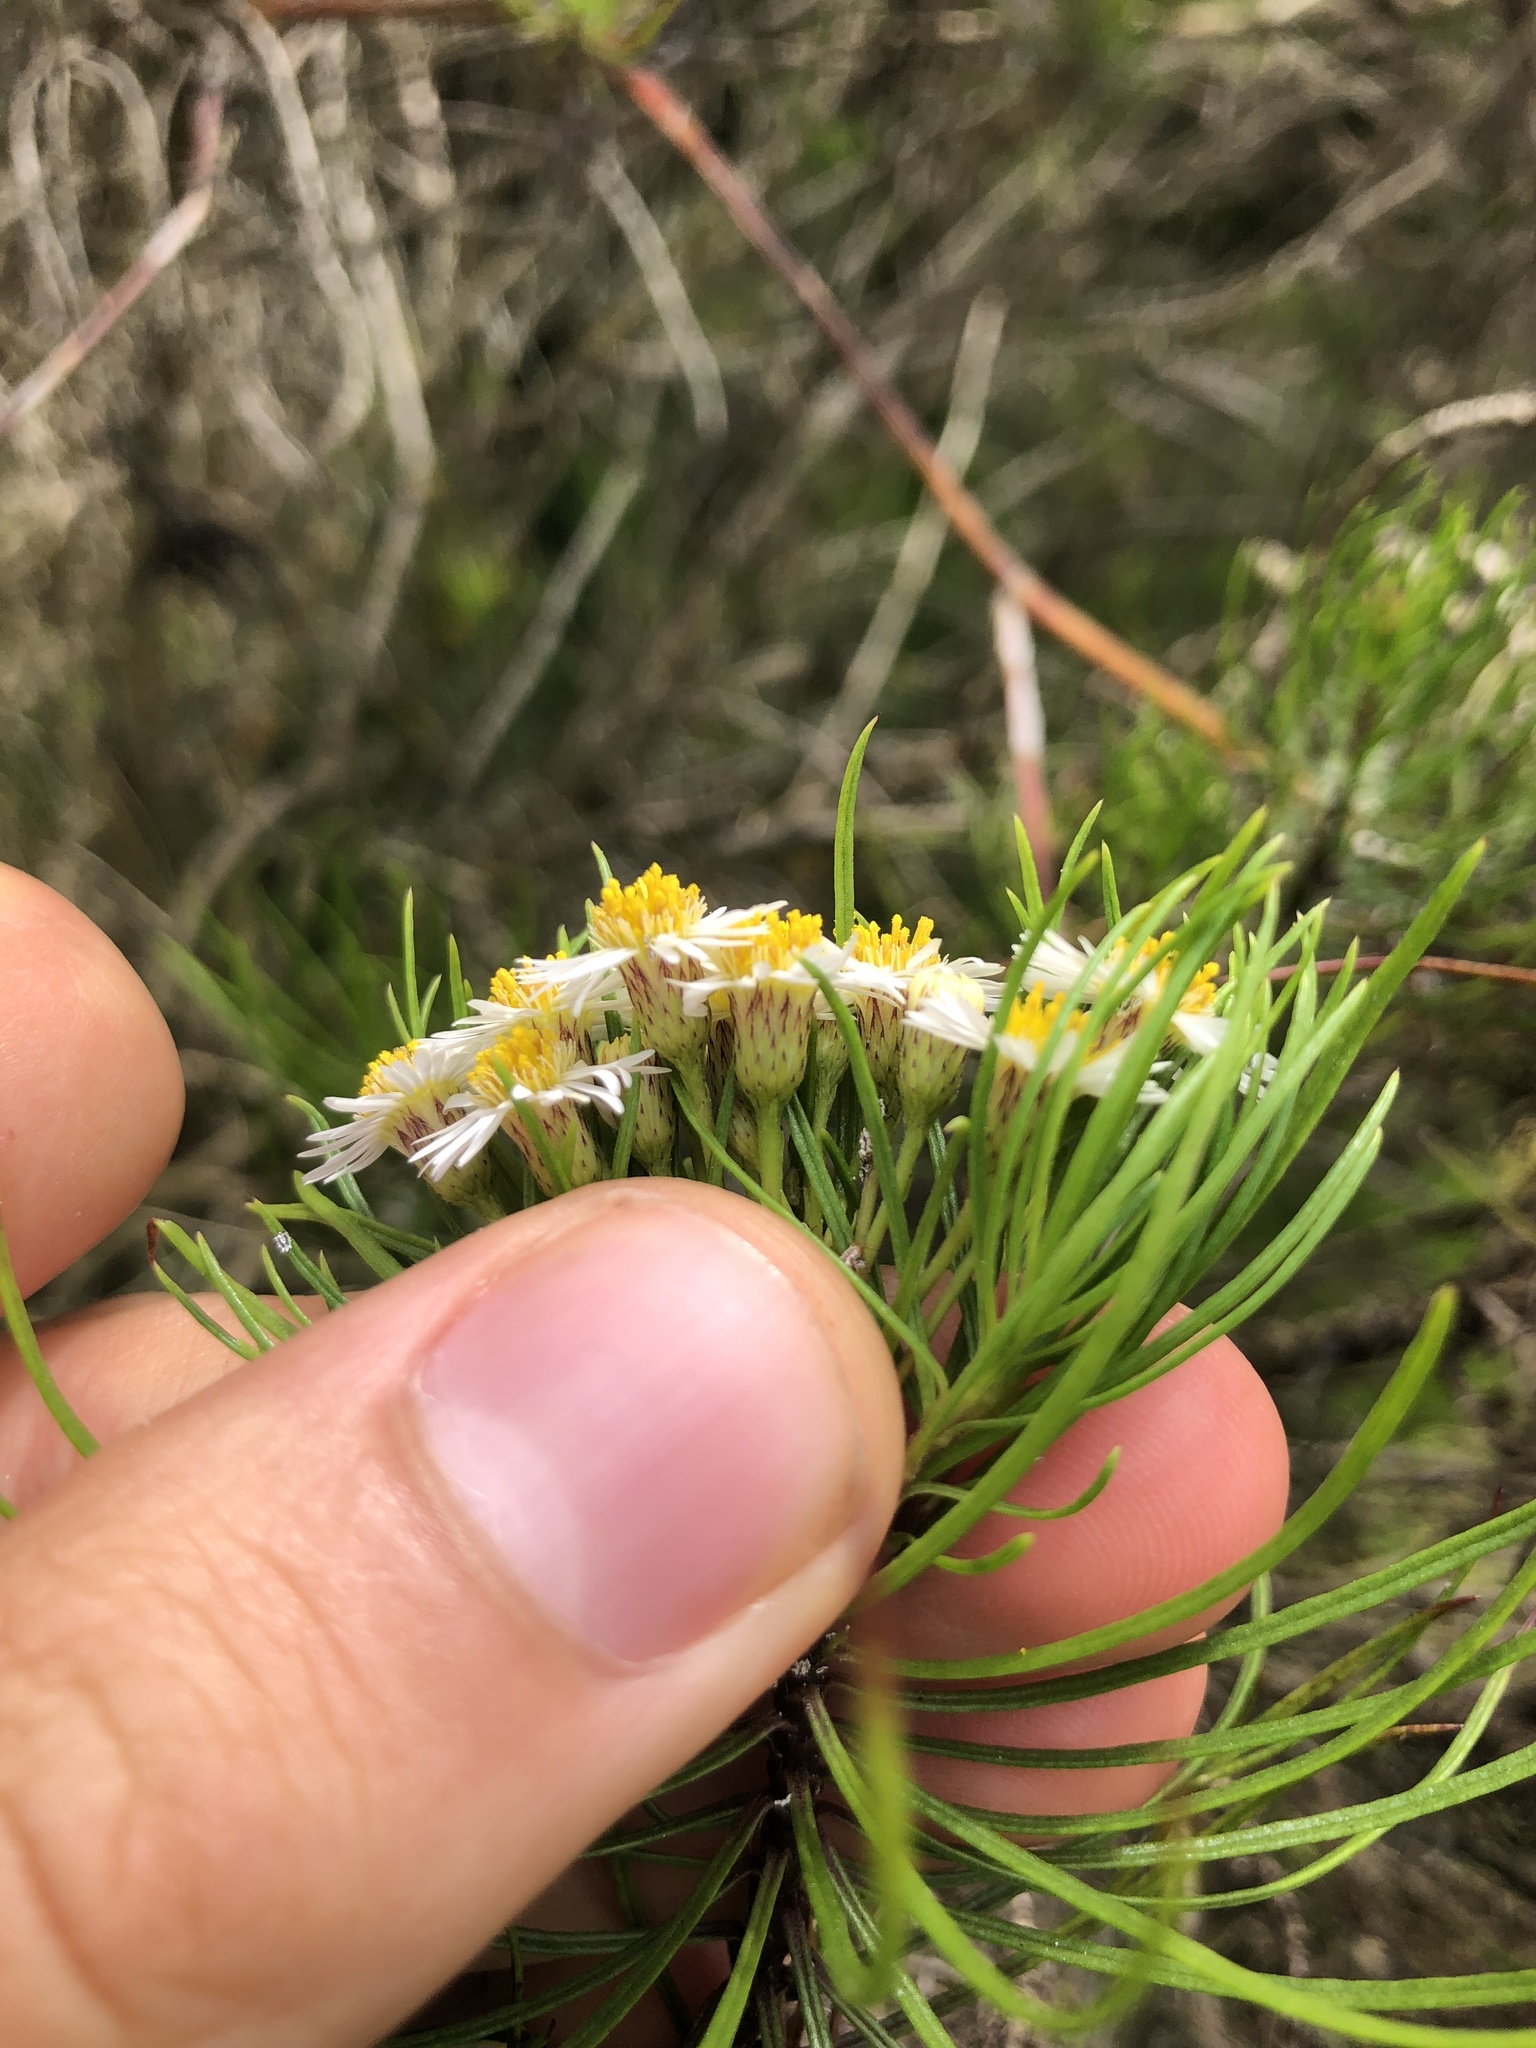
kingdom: Plantae
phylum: Tracheophyta
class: Magnoliopsida
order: Asterales
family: Asteraceae
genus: Erigeron
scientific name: Erigeron tenuifolius
